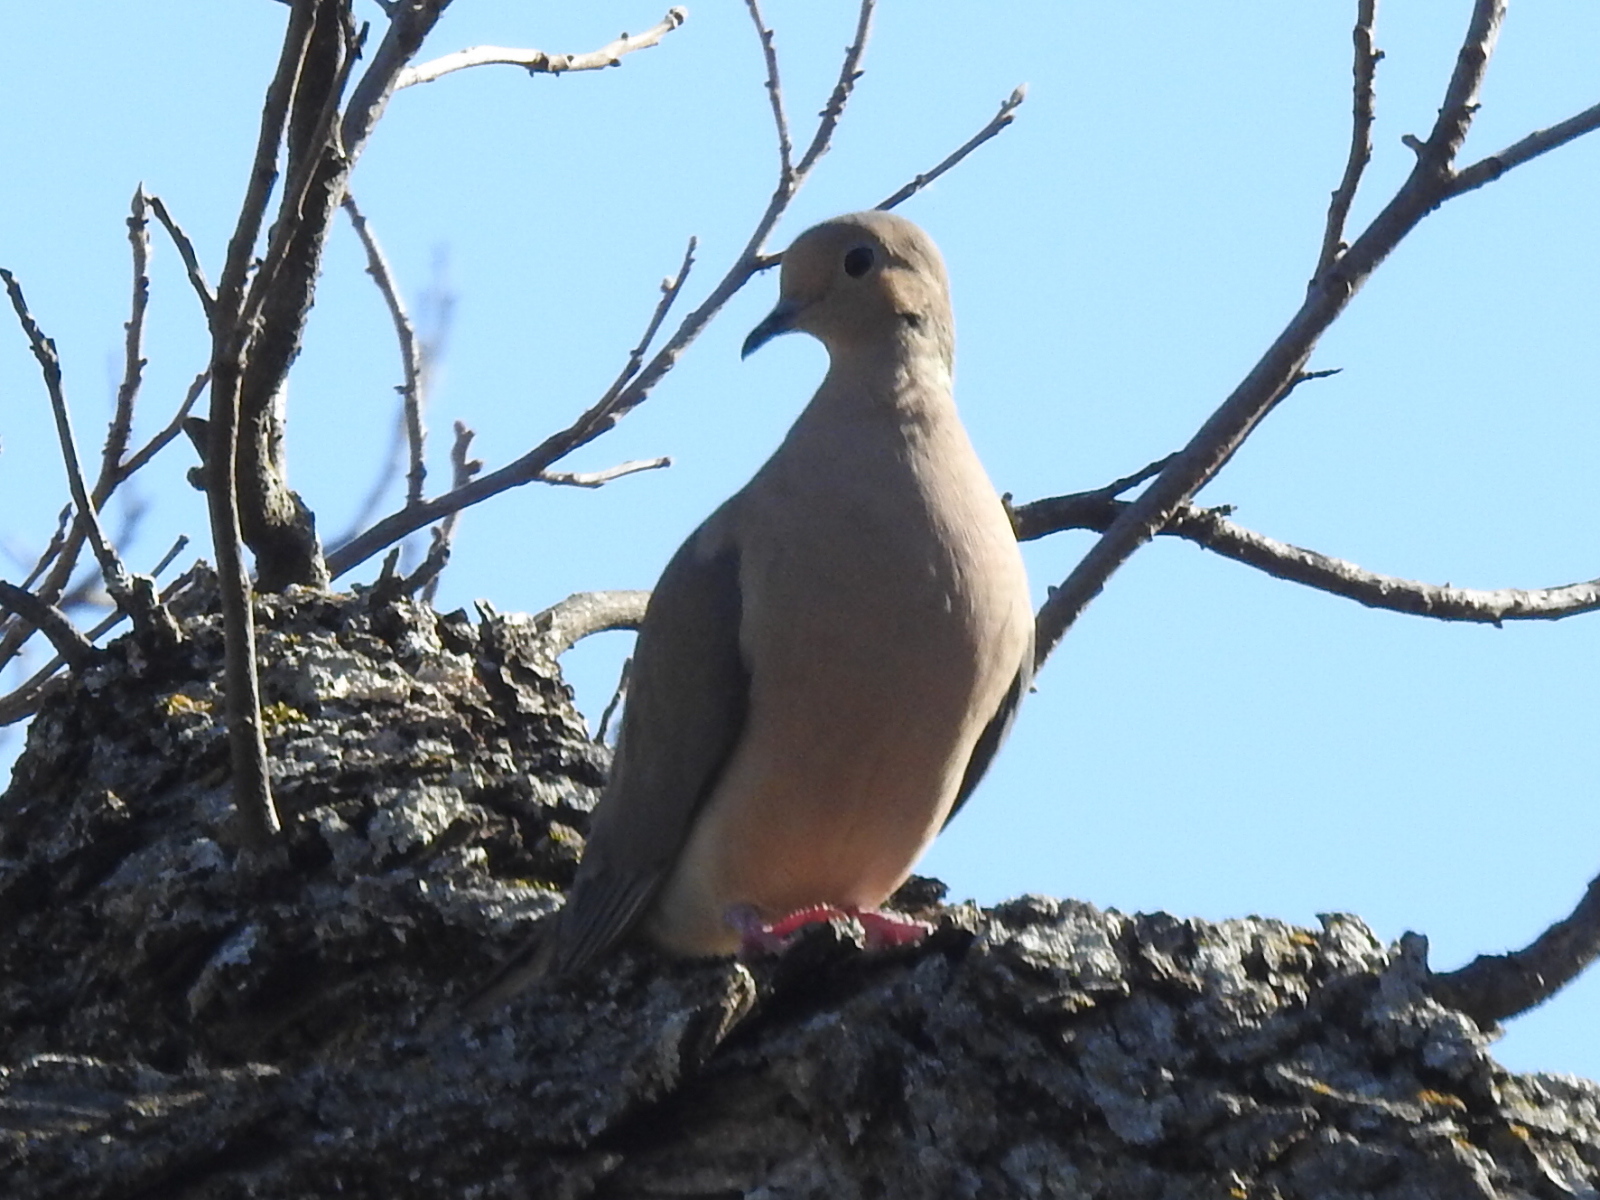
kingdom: Animalia
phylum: Chordata
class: Aves
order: Columbiformes
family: Columbidae
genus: Zenaida
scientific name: Zenaida macroura
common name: Mourning dove
